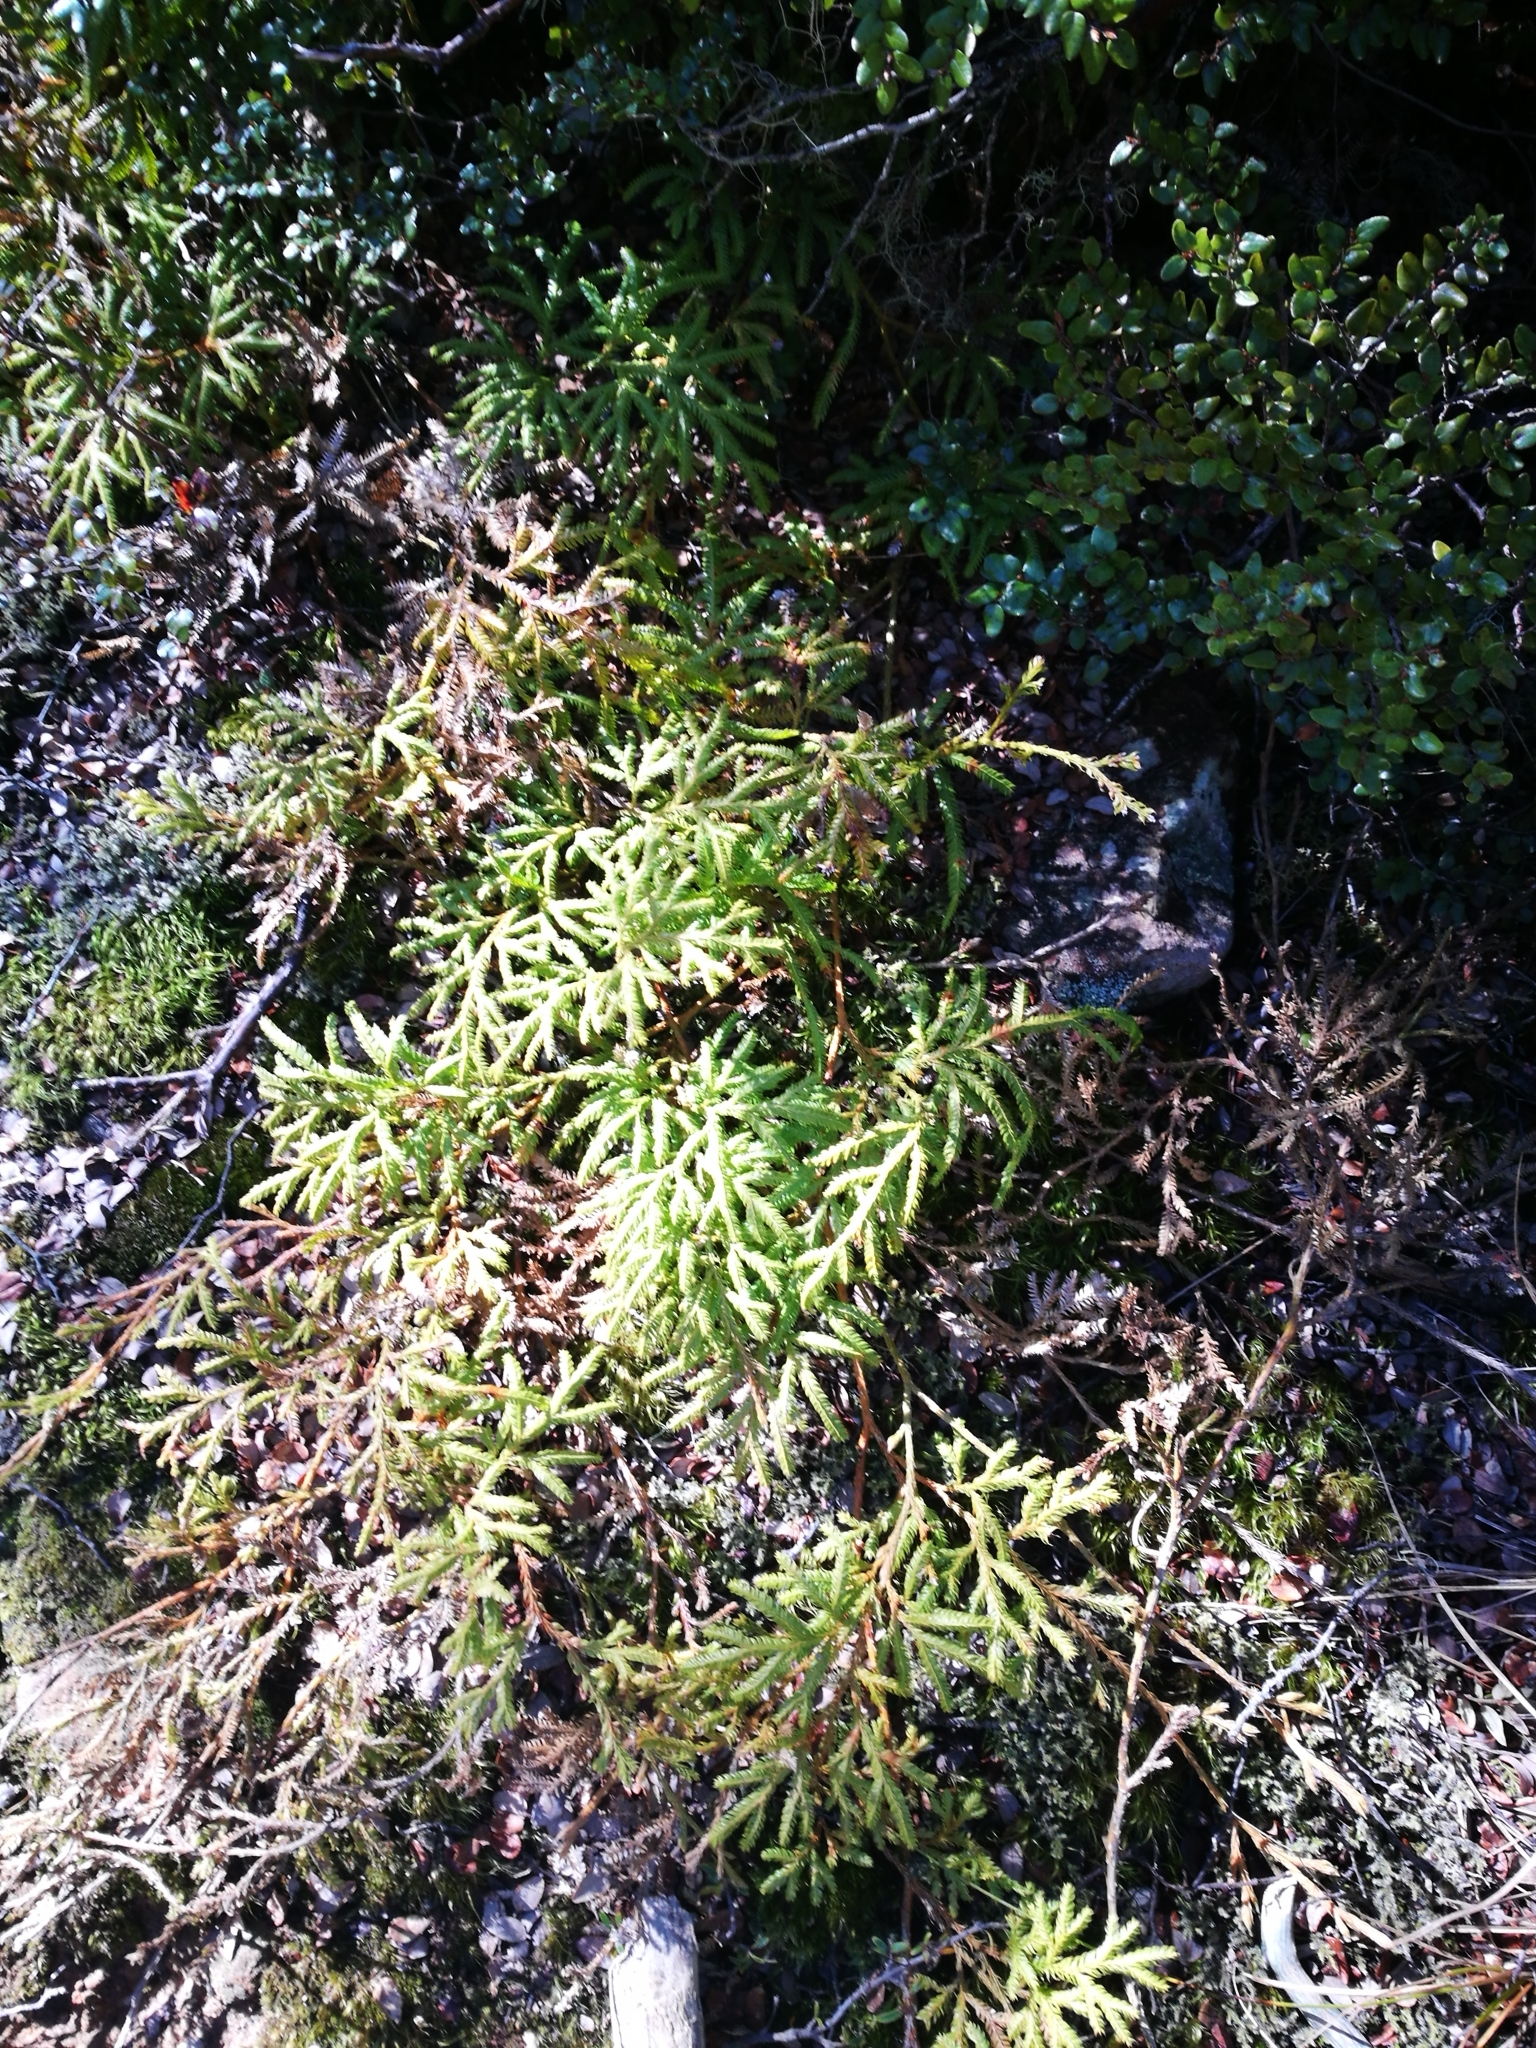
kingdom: Plantae
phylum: Tracheophyta
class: Lycopodiopsida
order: Lycopodiales
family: Lycopodiaceae
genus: Lycopodium
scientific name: Lycopodium volubile
